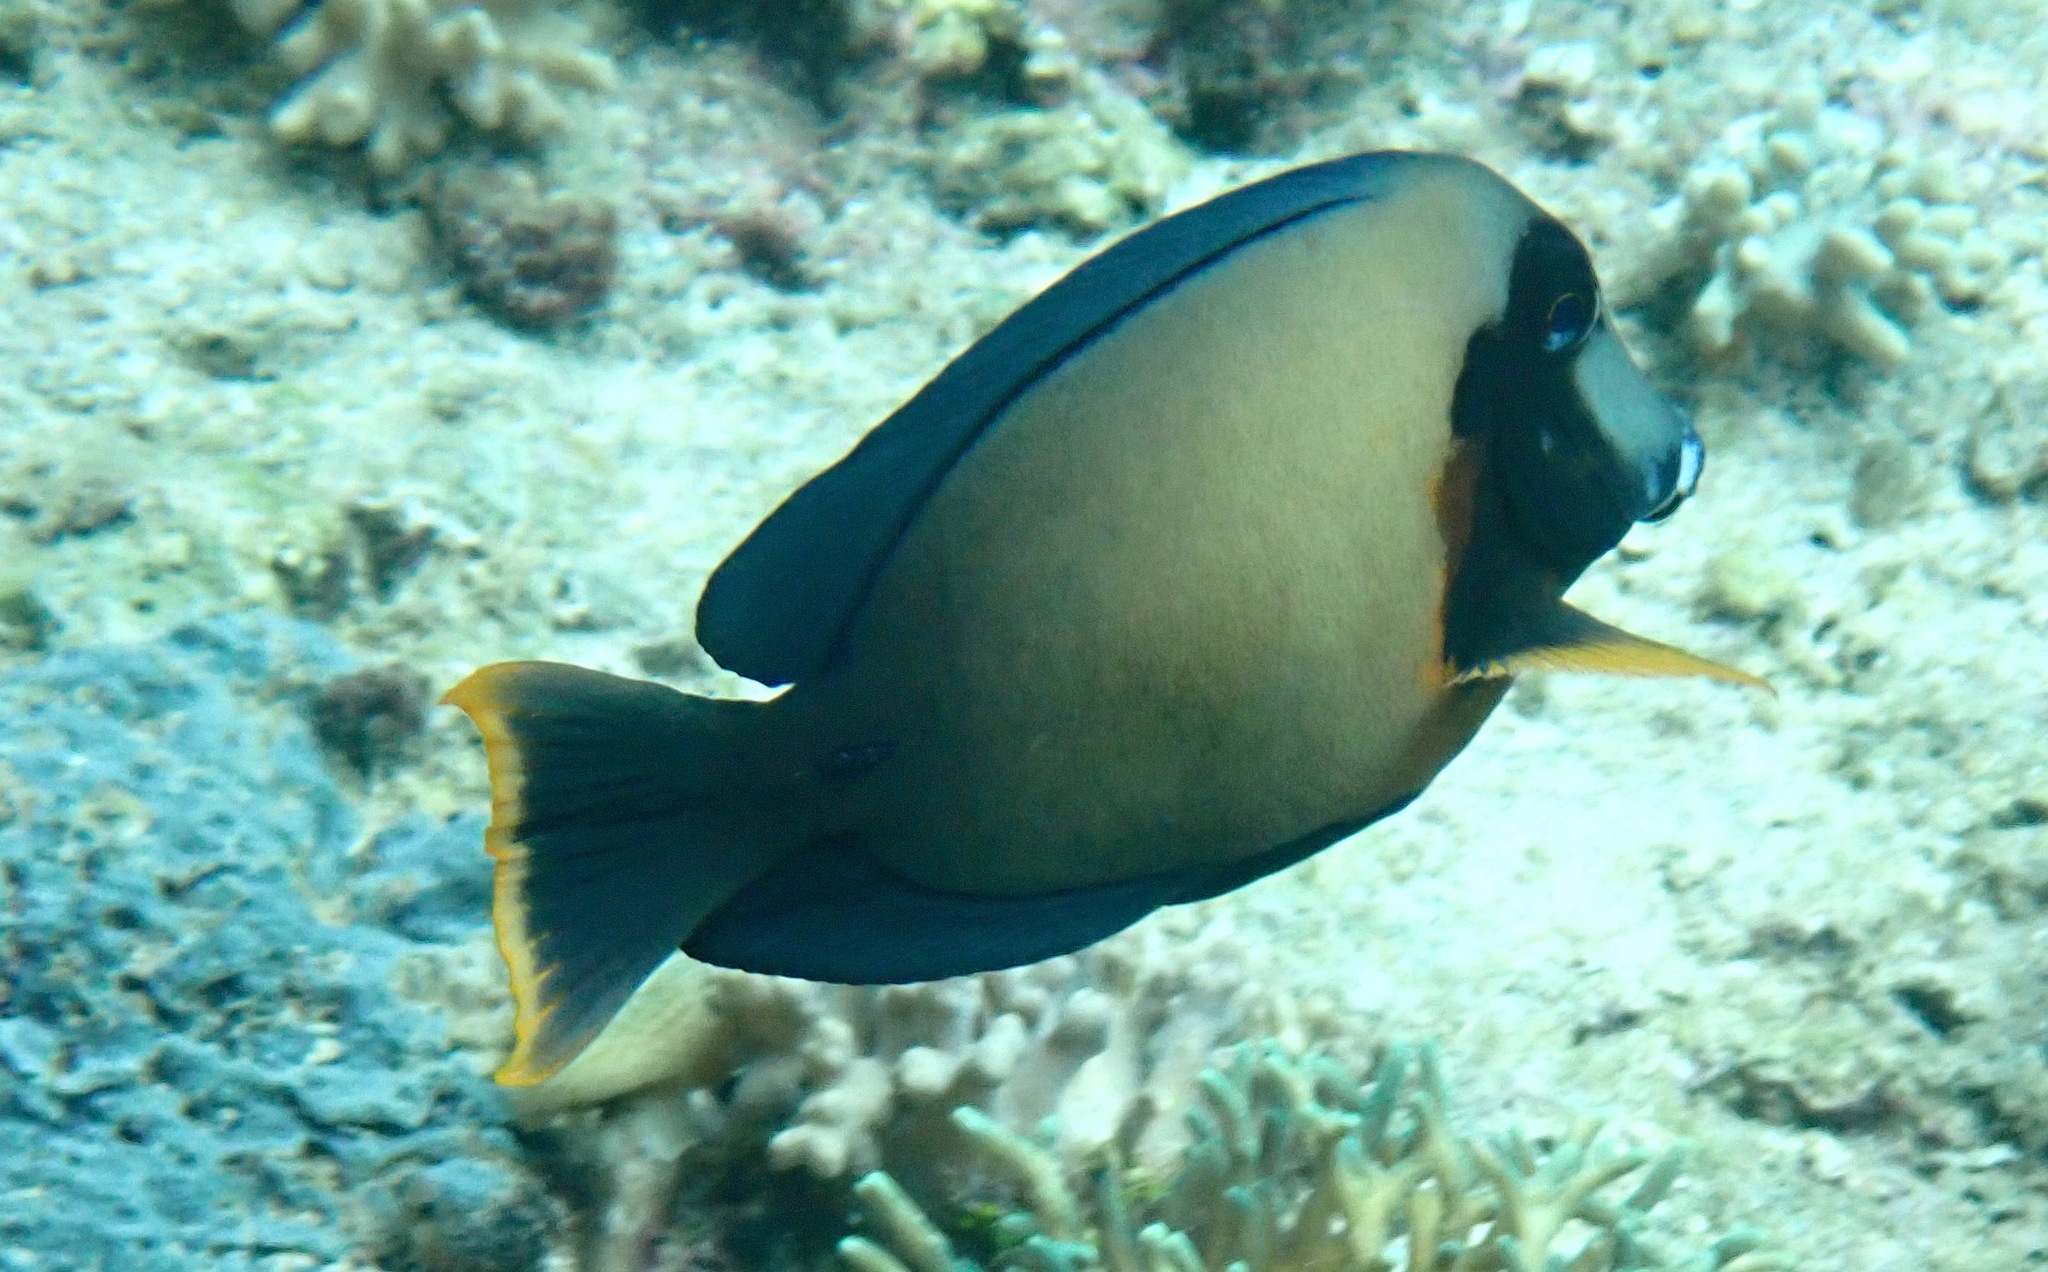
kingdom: Animalia
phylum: Chordata
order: Perciformes
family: Acanthuridae
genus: Acanthurus
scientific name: Acanthurus pyroferus
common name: Chocolate surgeonfish
